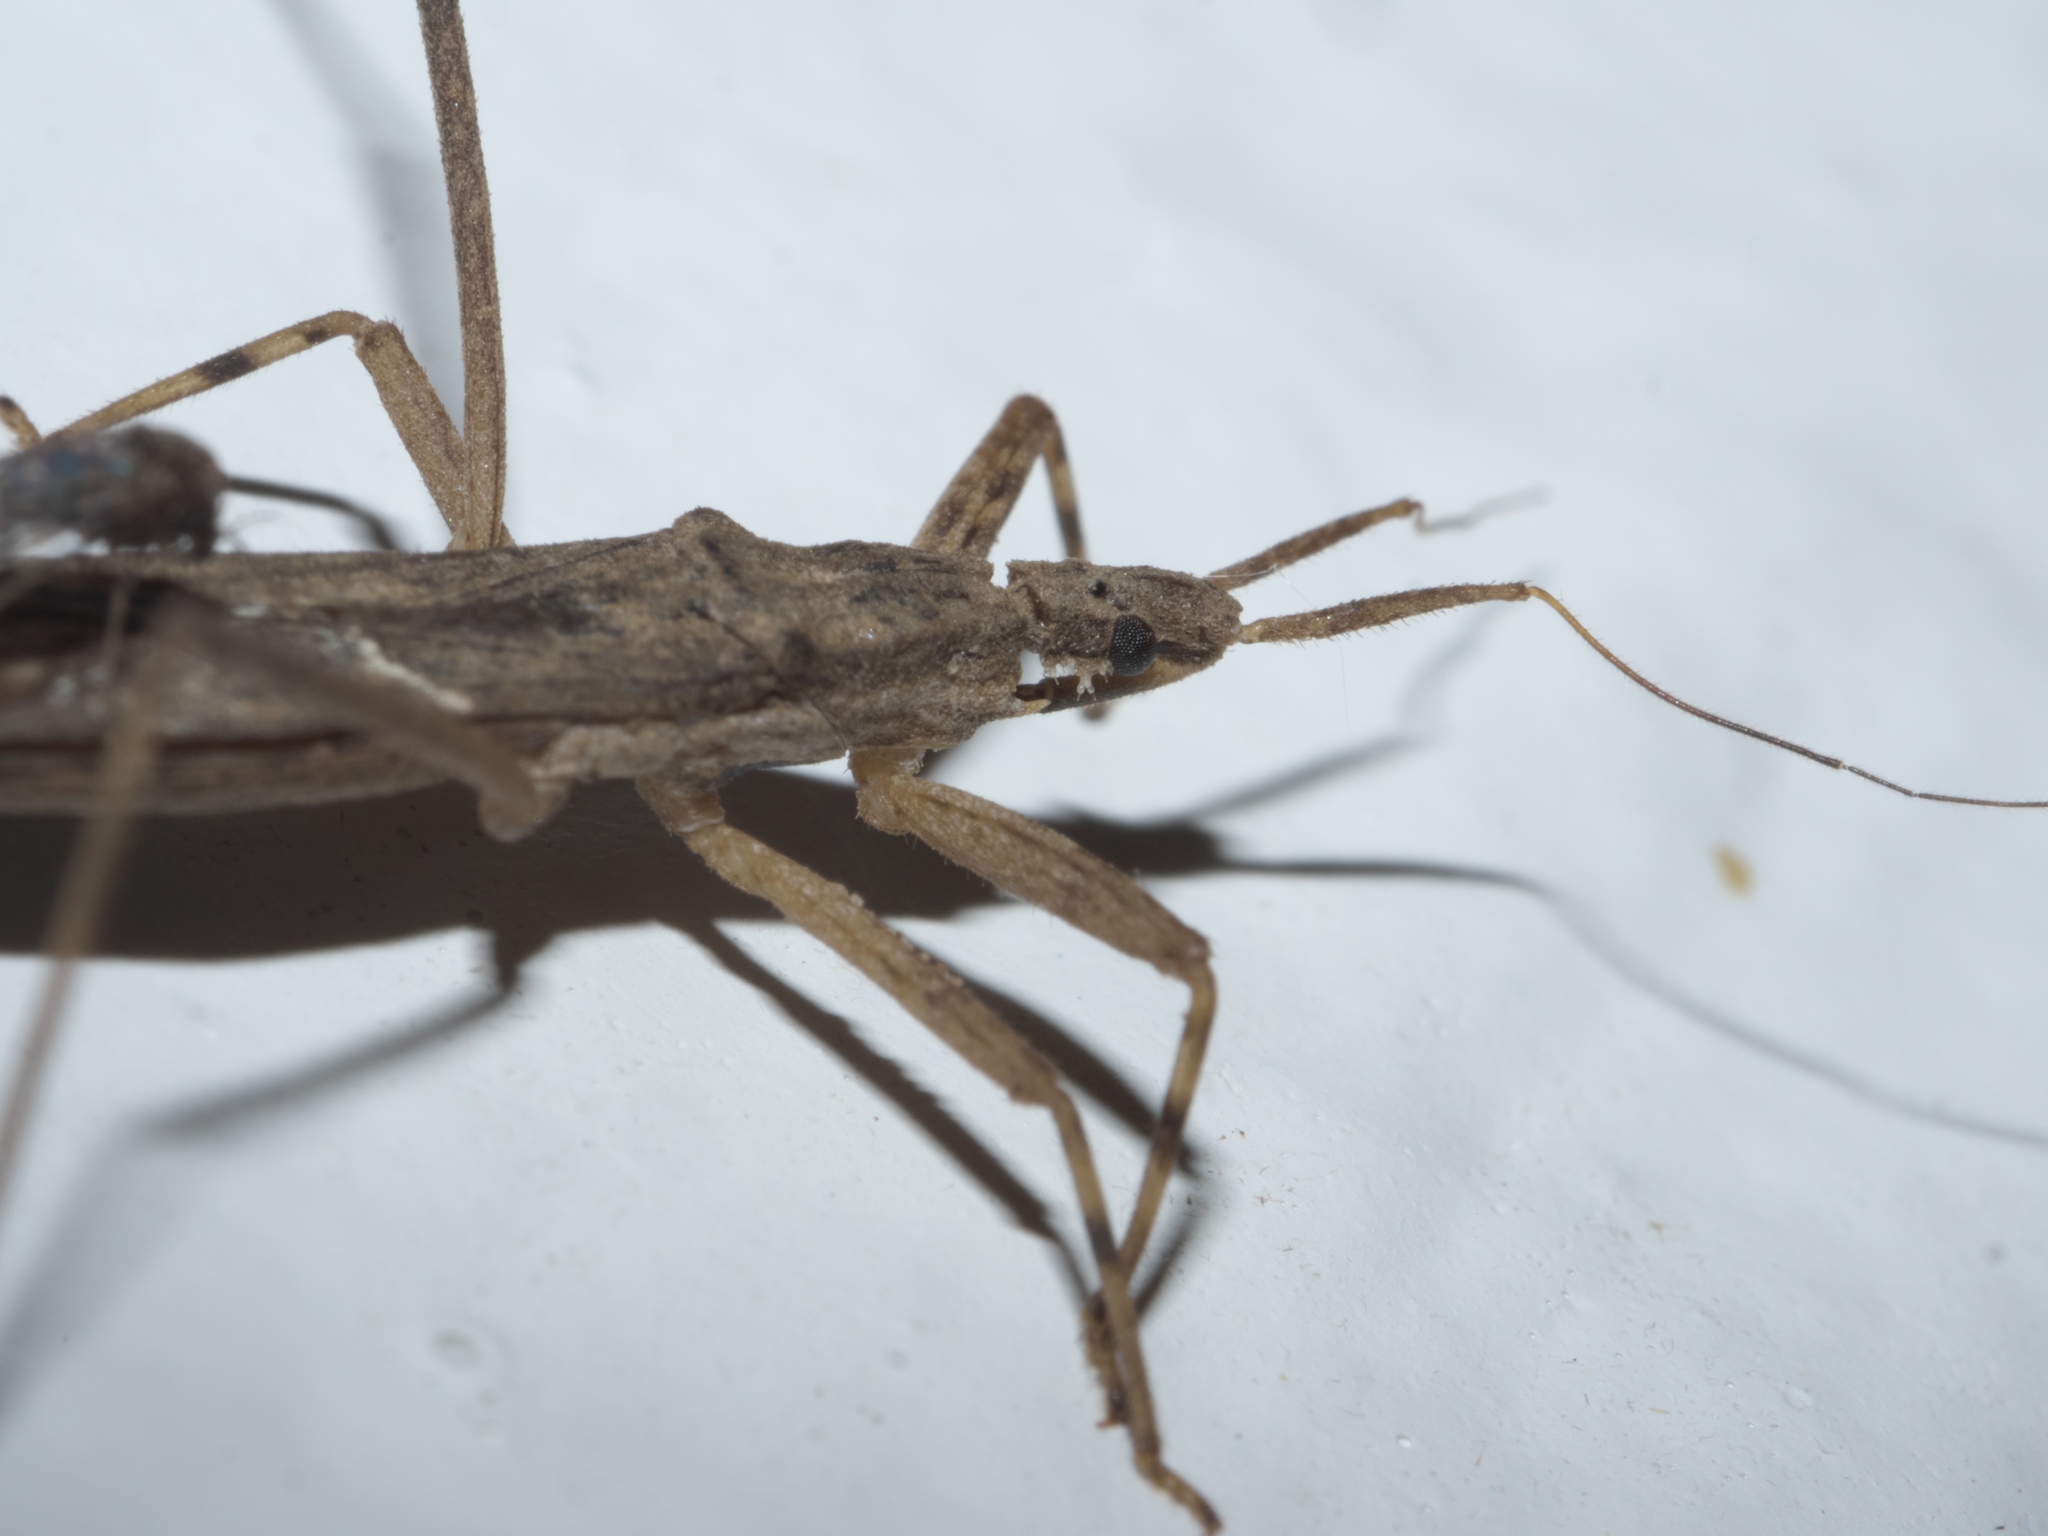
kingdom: Animalia
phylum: Arthropoda
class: Insecta
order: Hemiptera
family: Reduviidae
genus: Pygolampis
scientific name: Pygolampis pectoralis
